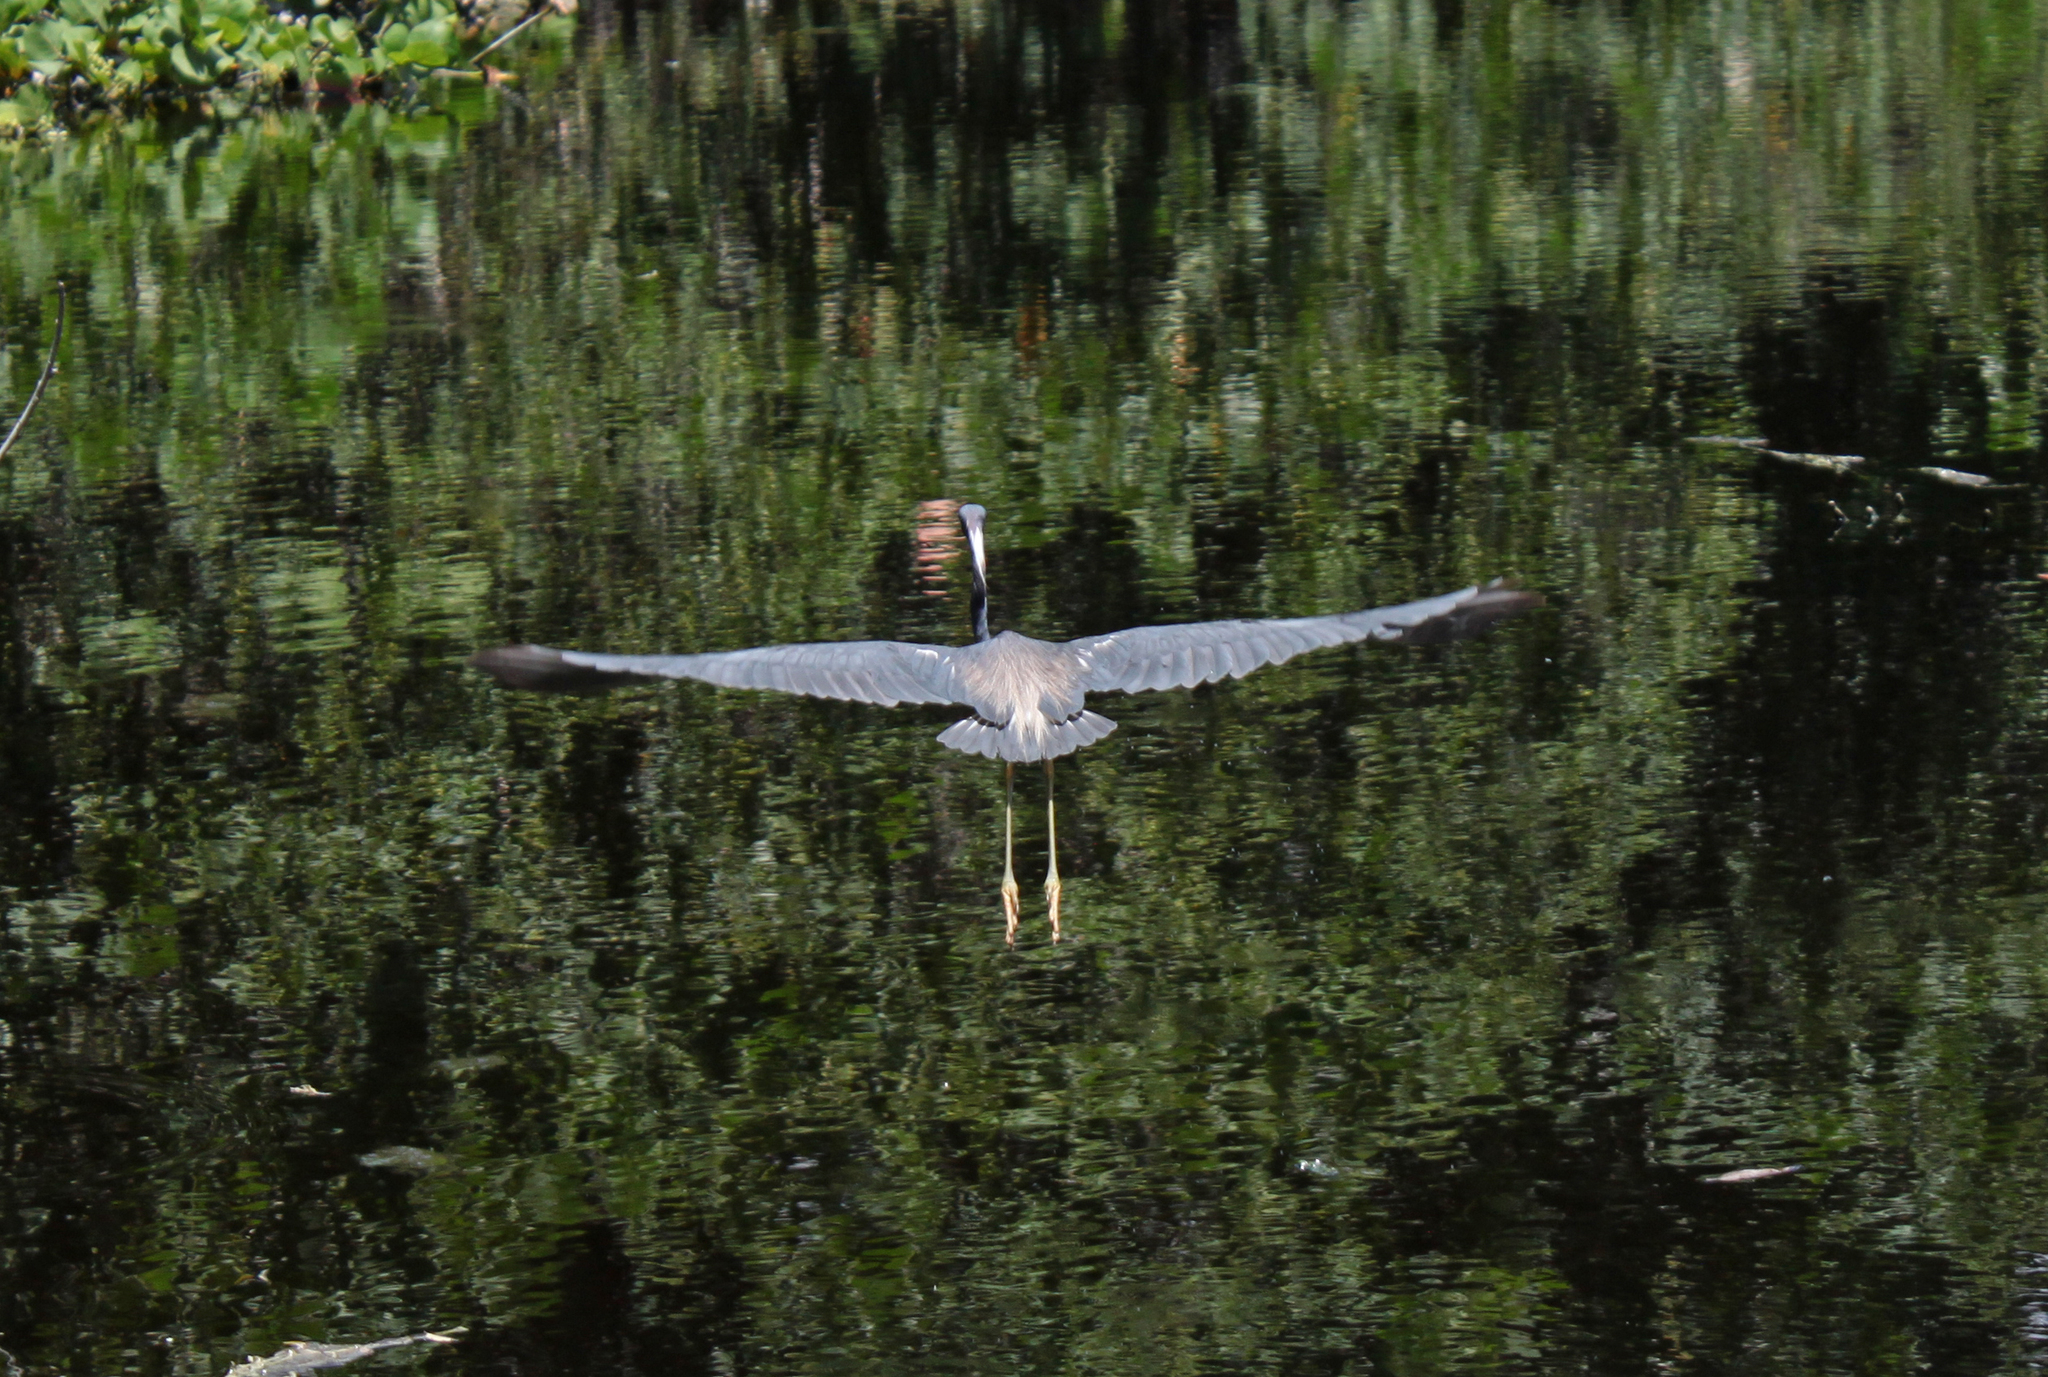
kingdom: Animalia
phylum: Chordata
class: Aves
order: Pelecaniformes
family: Ardeidae
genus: Egretta
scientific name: Egretta tricolor
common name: Tricolored heron
